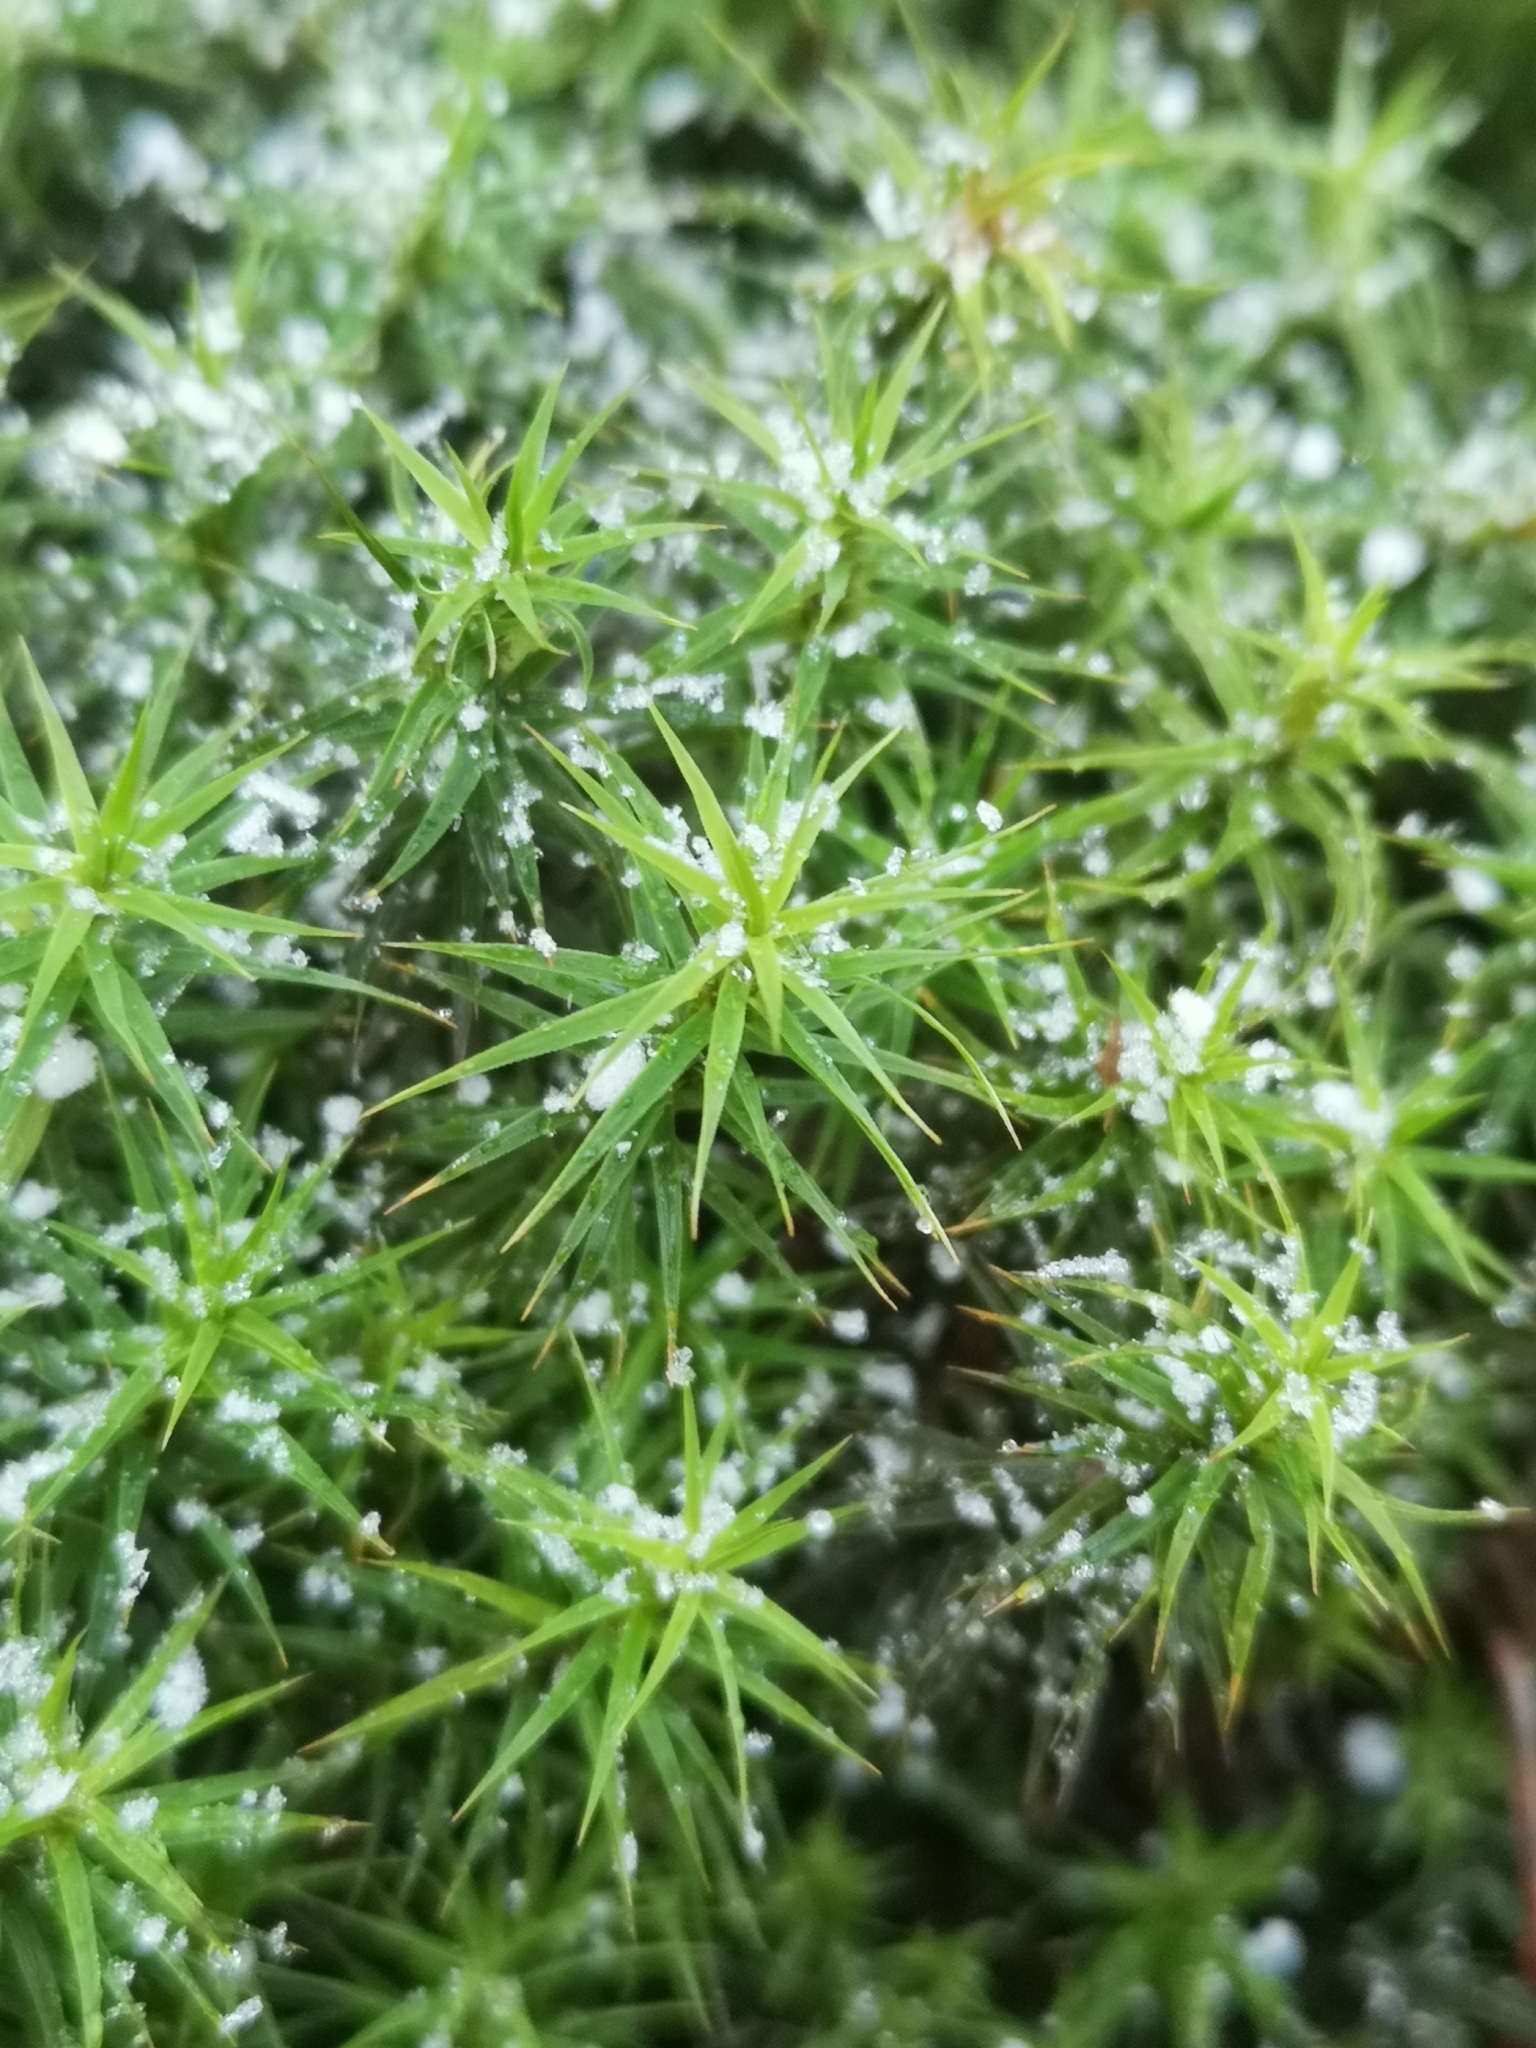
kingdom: Plantae
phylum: Bryophyta
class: Polytrichopsida
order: Polytrichales
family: Polytrichaceae
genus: Polytrichum
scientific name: Polytrichum formosum
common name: Bank haircap moss
